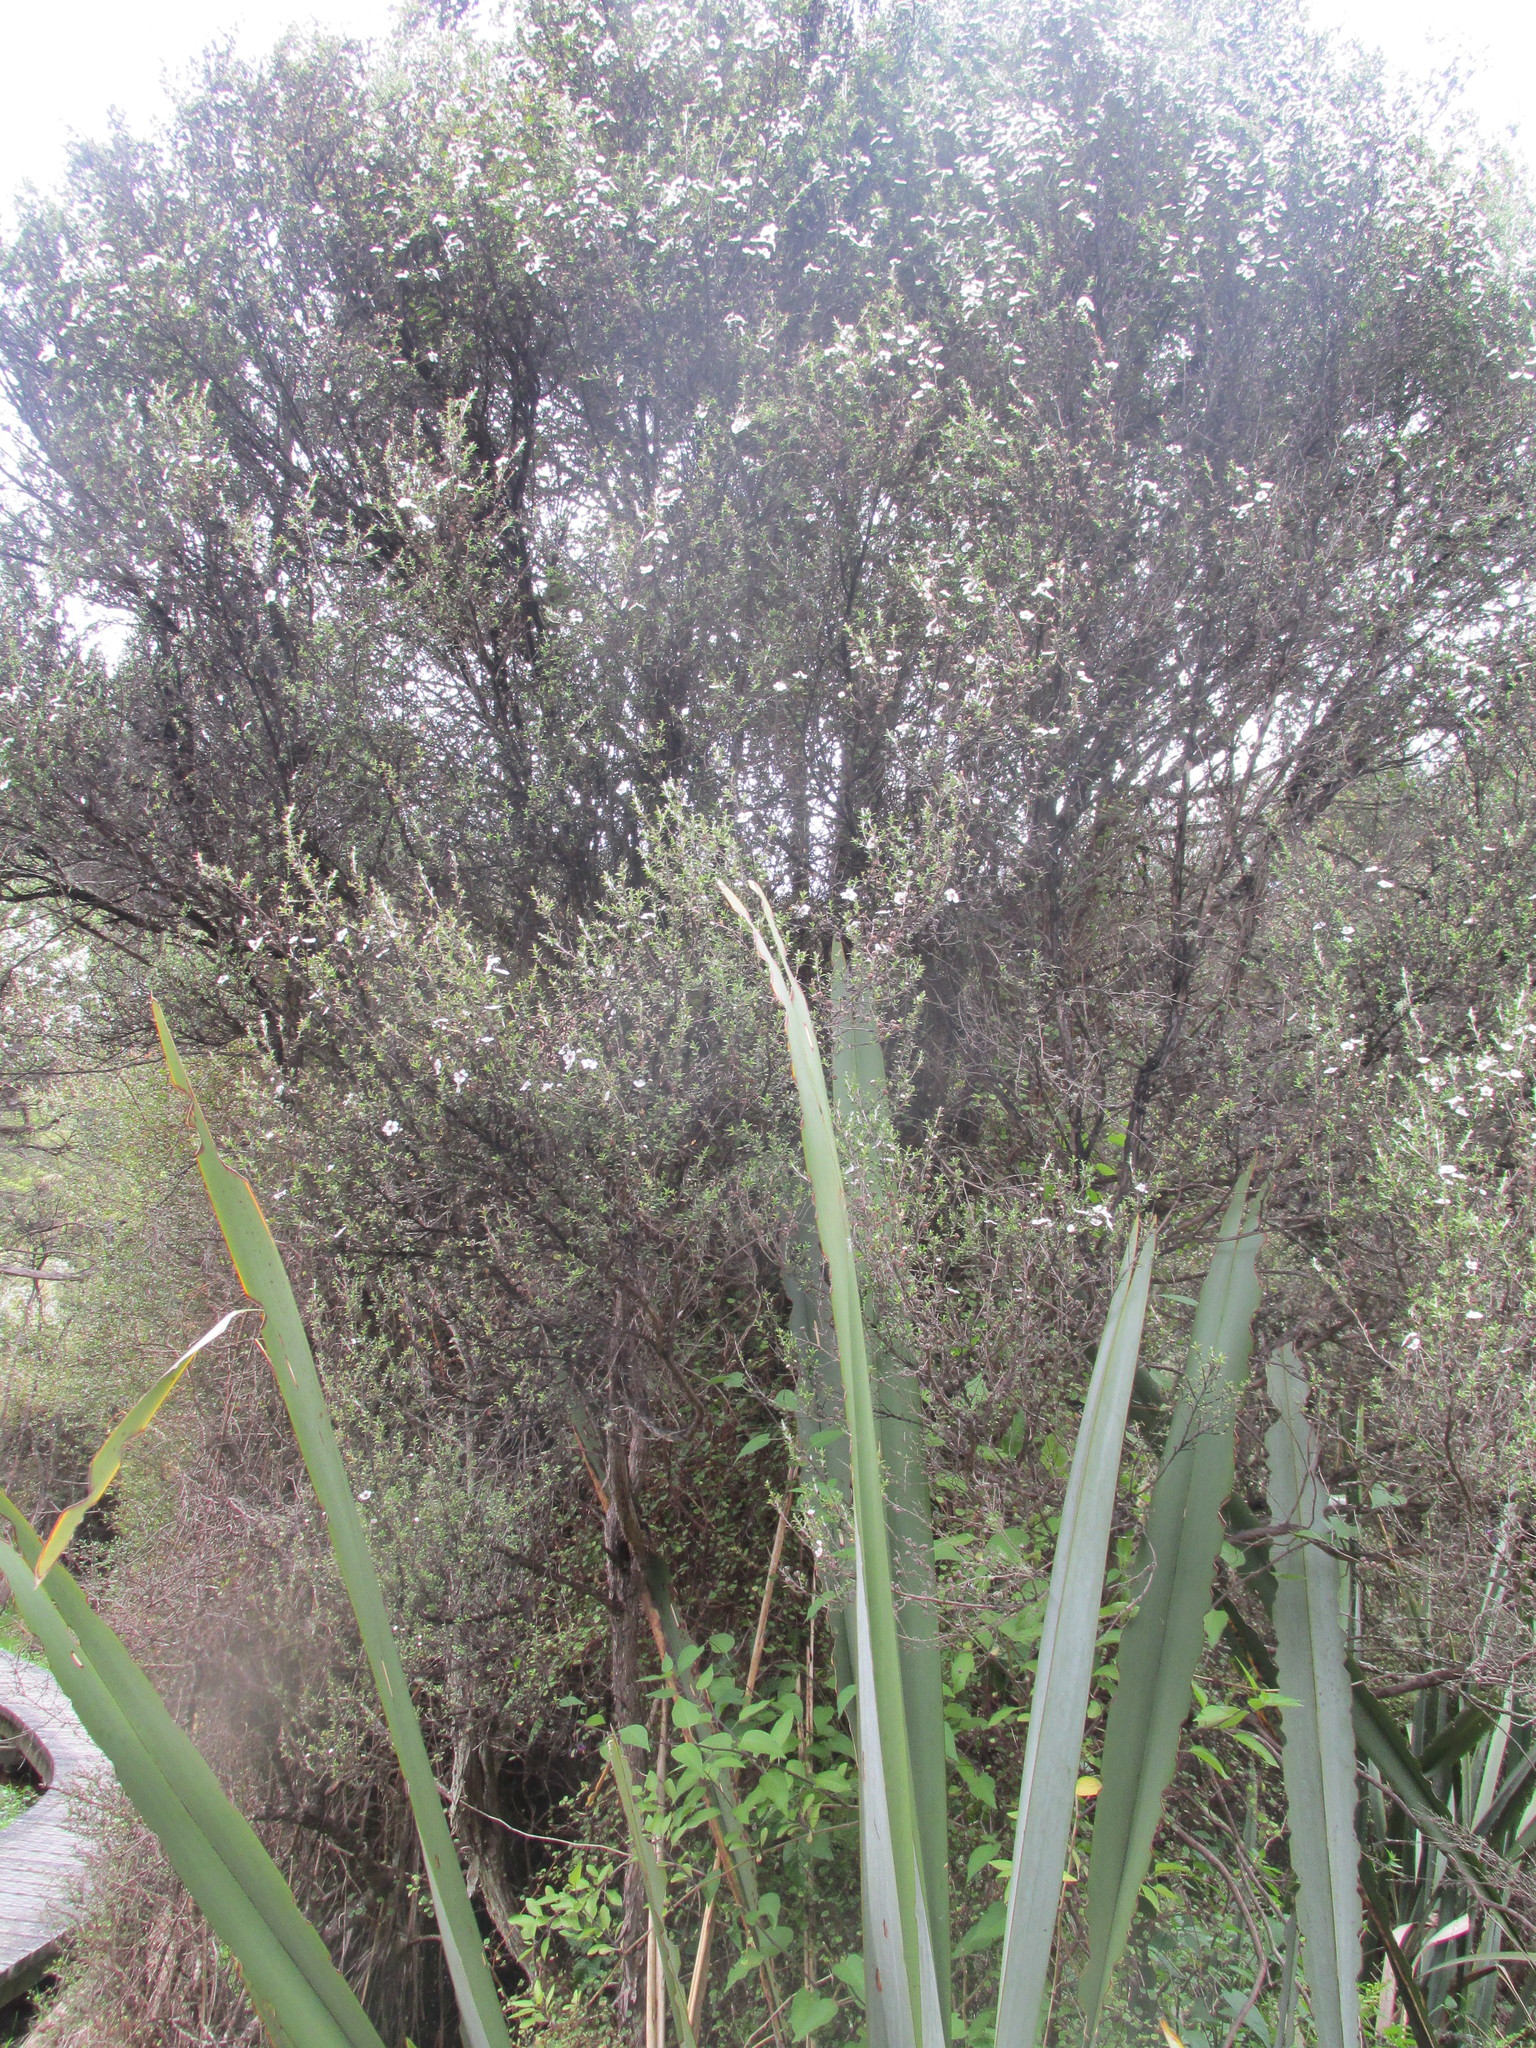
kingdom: Plantae
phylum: Tracheophyta
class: Magnoliopsida
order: Myrtales
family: Myrtaceae
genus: Leptospermum
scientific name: Leptospermum scoparium
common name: Broom tea-tree
